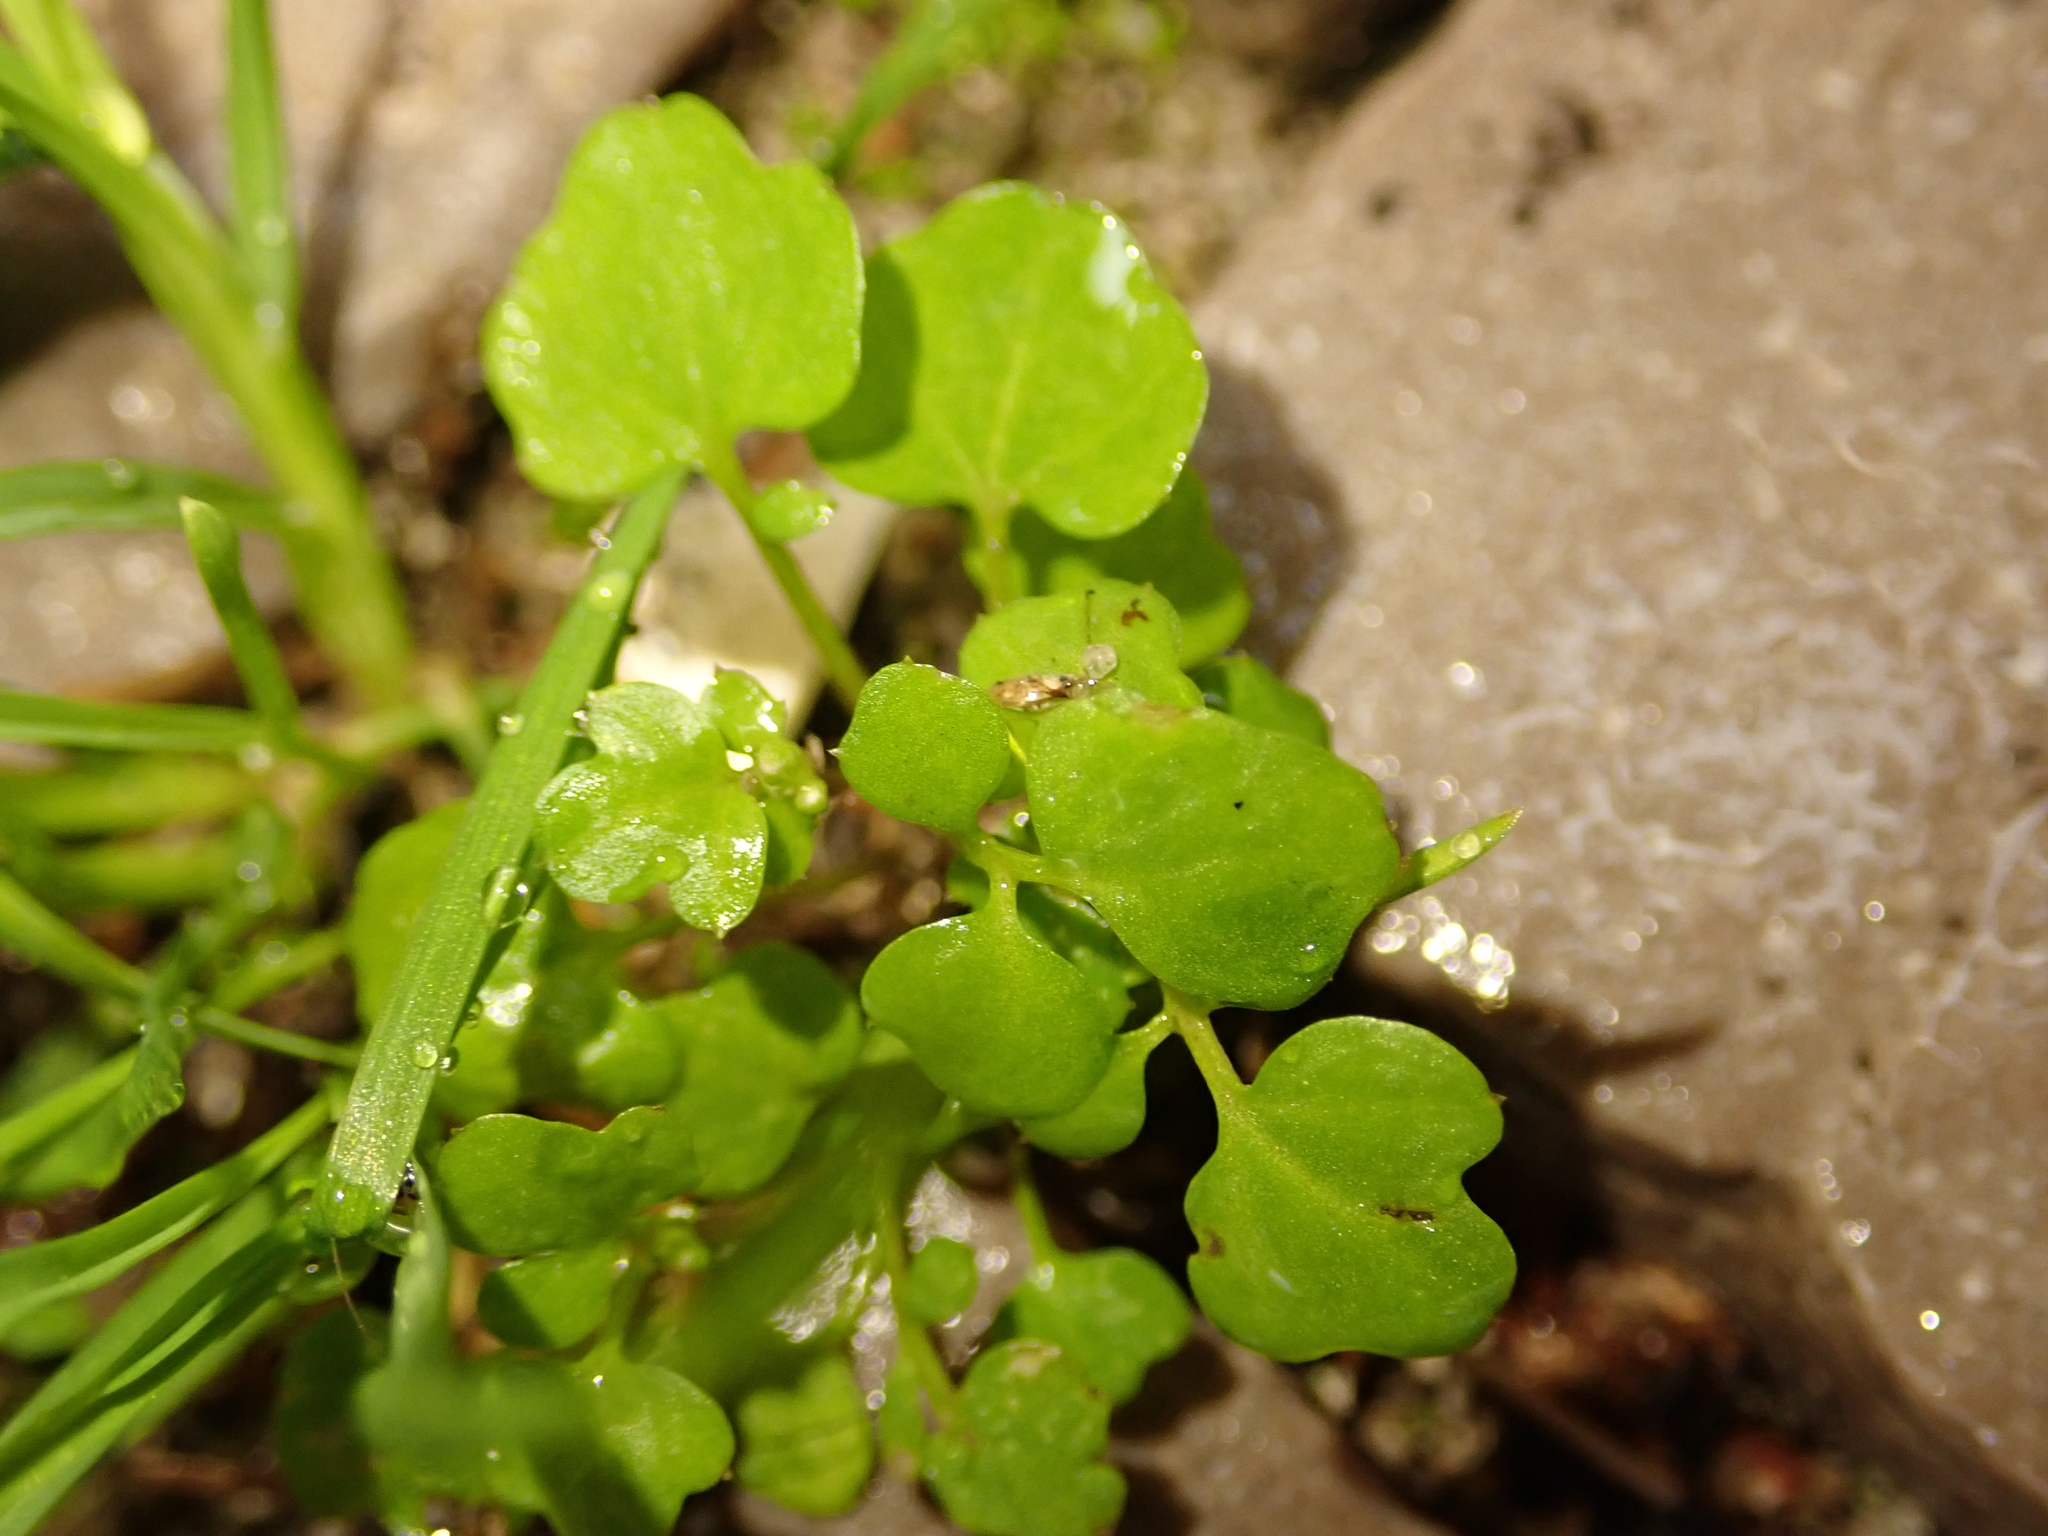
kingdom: Plantae
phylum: Tracheophyta
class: Magnoliopsida
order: Brassicales
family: Brassicaceae
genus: Cardamine
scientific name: Cardamine hirsuta
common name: Hairy bittercress
